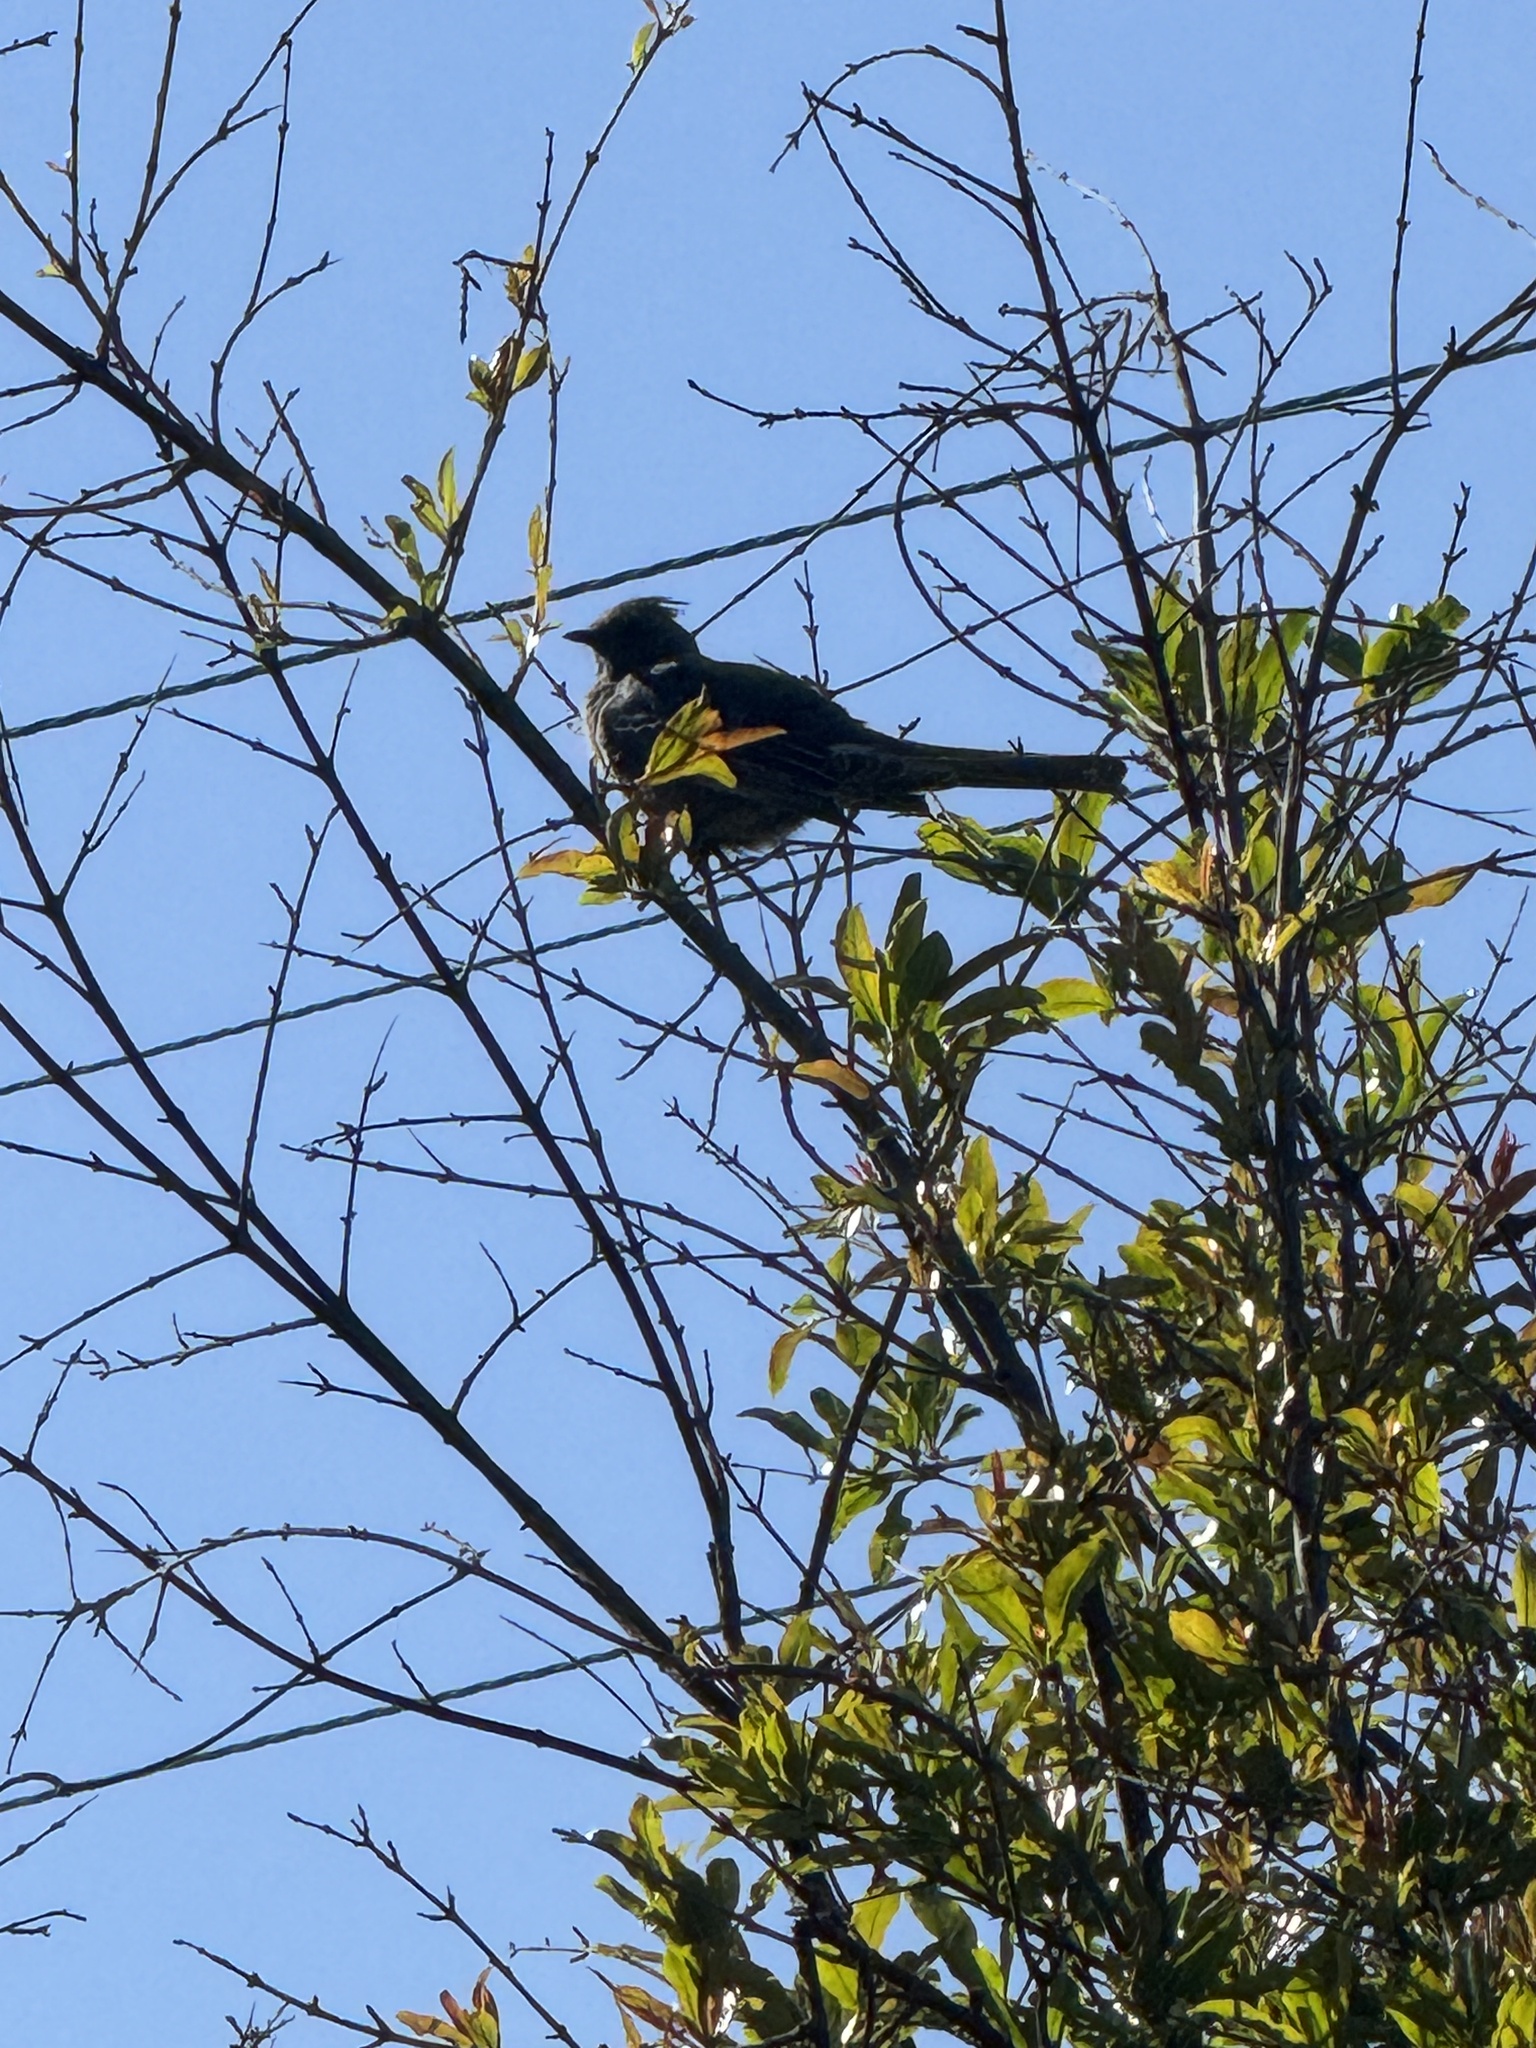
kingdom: Animalia
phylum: Chordata
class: Aves
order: Passeriformes
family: Ptilogonatidae
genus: Phainopepla
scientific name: Phainopepla nitens
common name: Phainopepla
